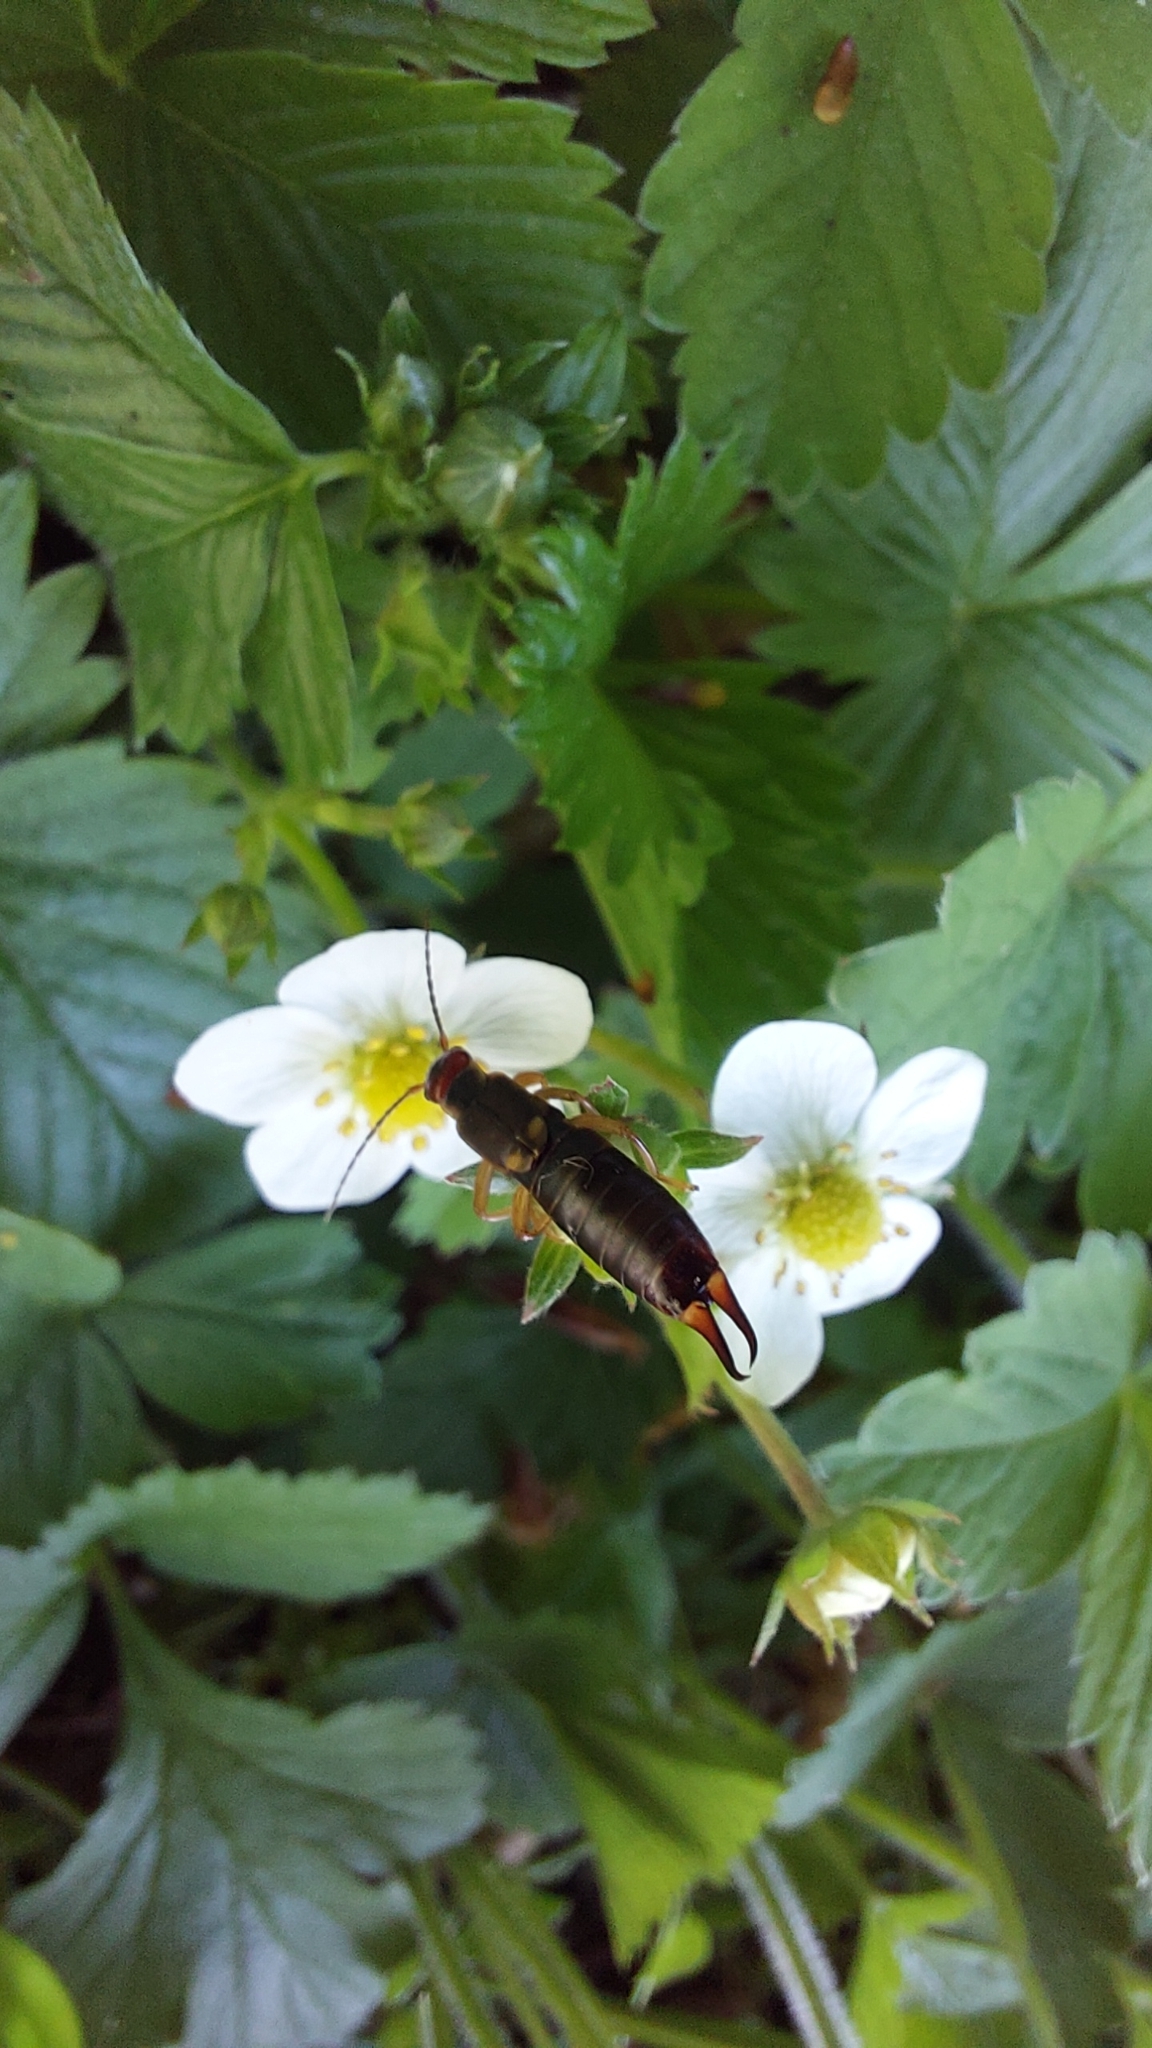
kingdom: Animalia
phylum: Arthropoda
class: Insecta
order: Dermaptera
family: Forficulidae
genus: Forficula
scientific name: Forficula
